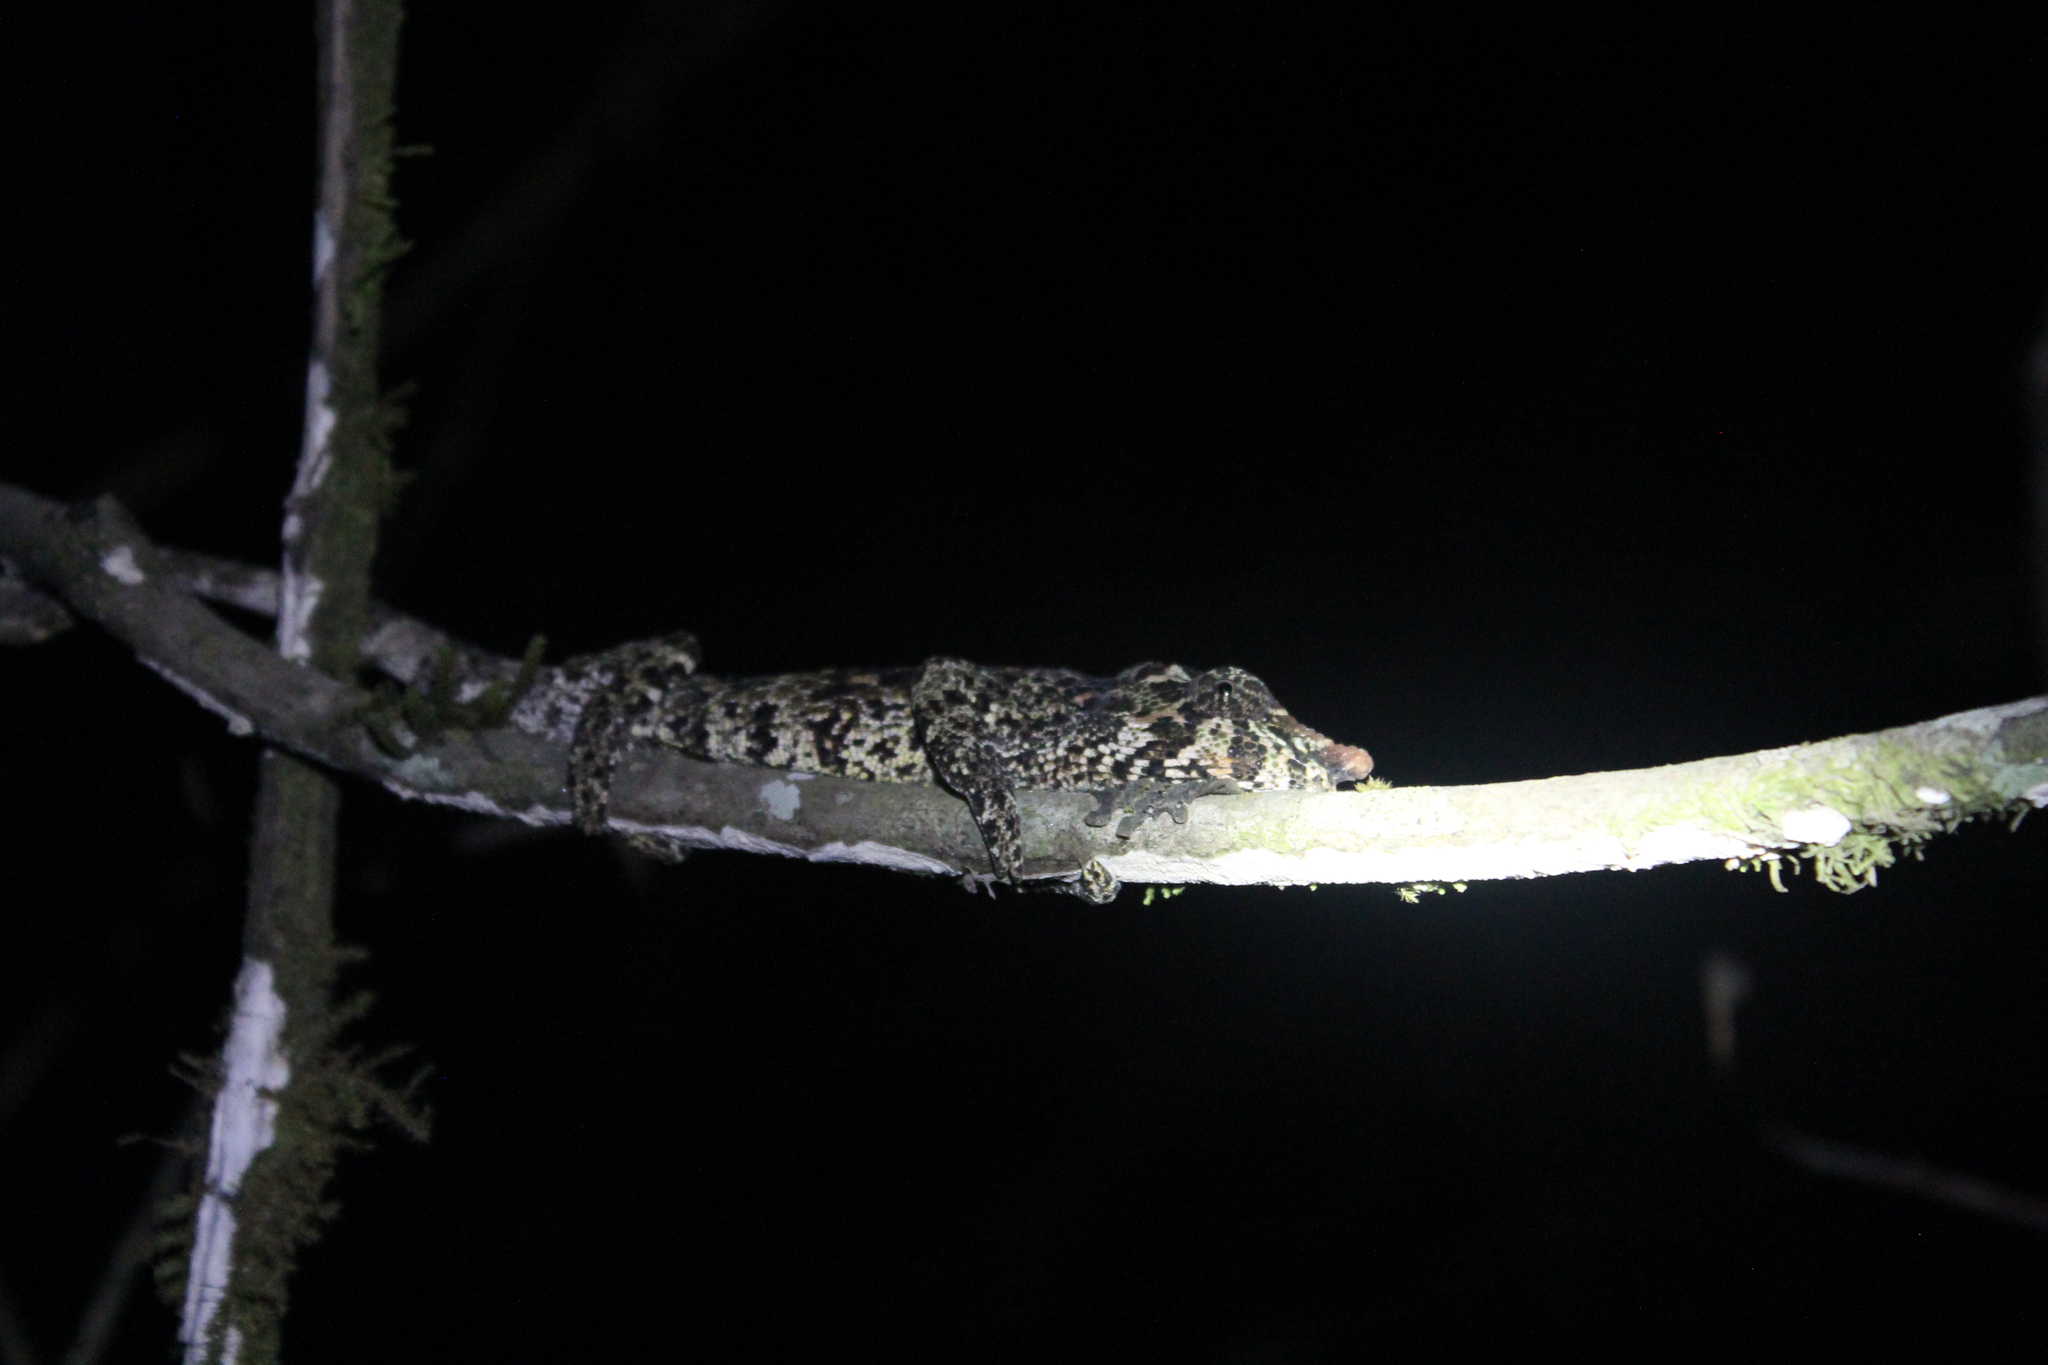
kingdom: Animalia
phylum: Chordata
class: Squamata
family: Chamaeleonidae
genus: Calumma
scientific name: Calumma crypticum
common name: Cryptic chameleon
